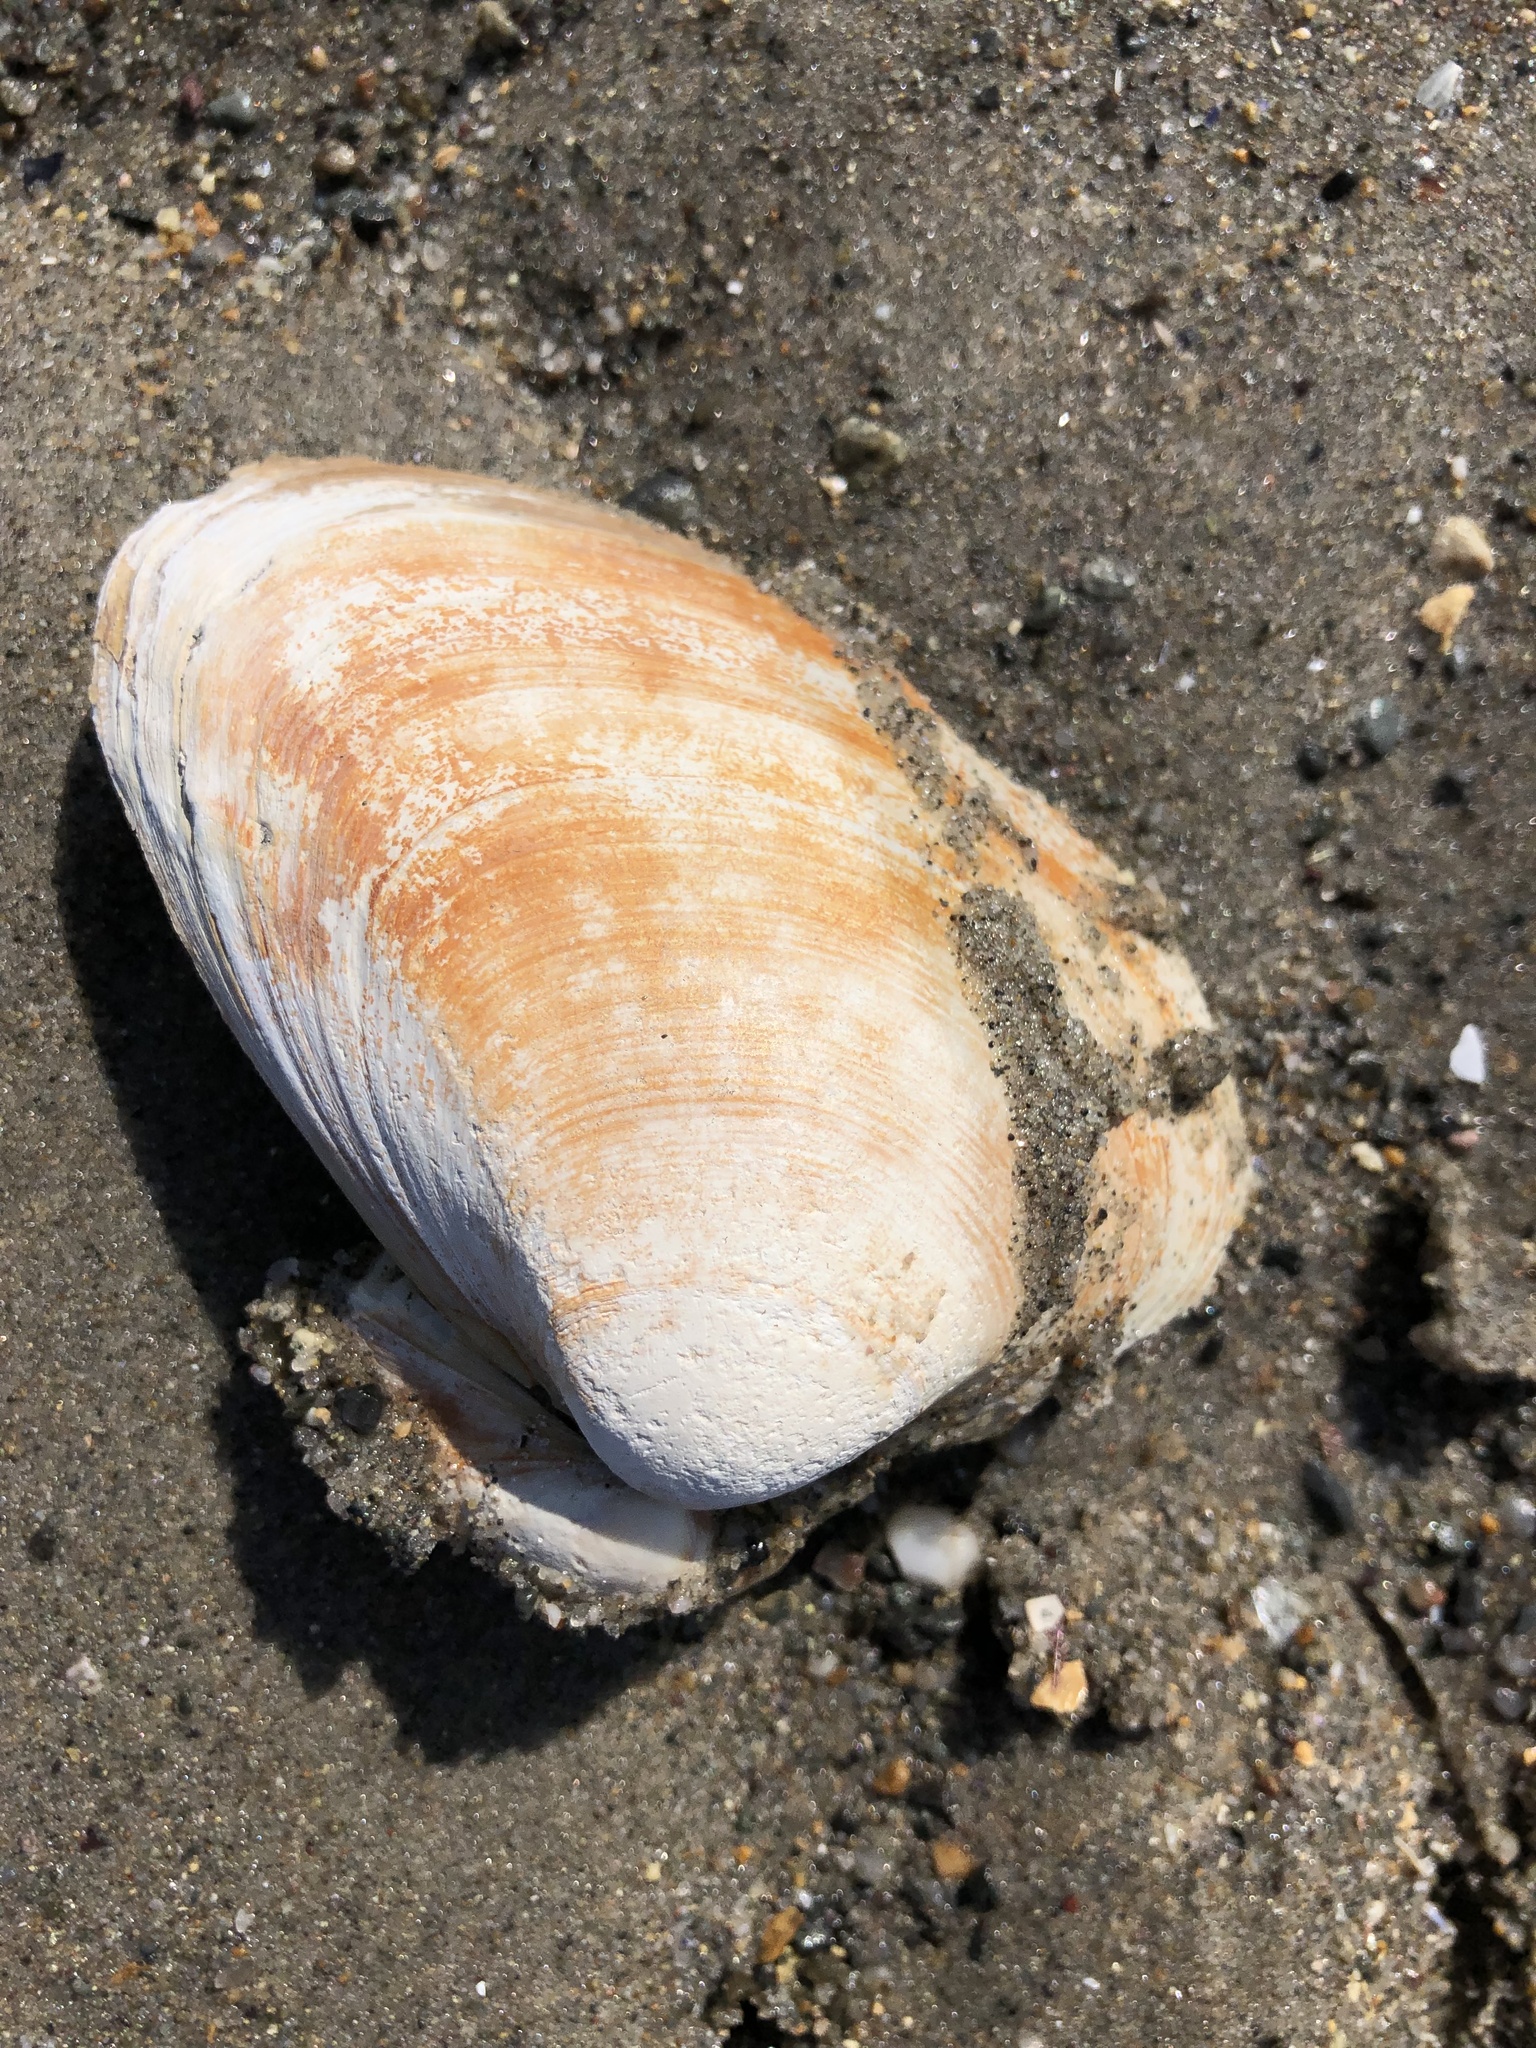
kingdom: Animalia
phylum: Mollusca
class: Bivalvia
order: Venerida
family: Mactridae
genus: Spisula
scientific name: Spisula solidissima
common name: Atlantic surf clam
